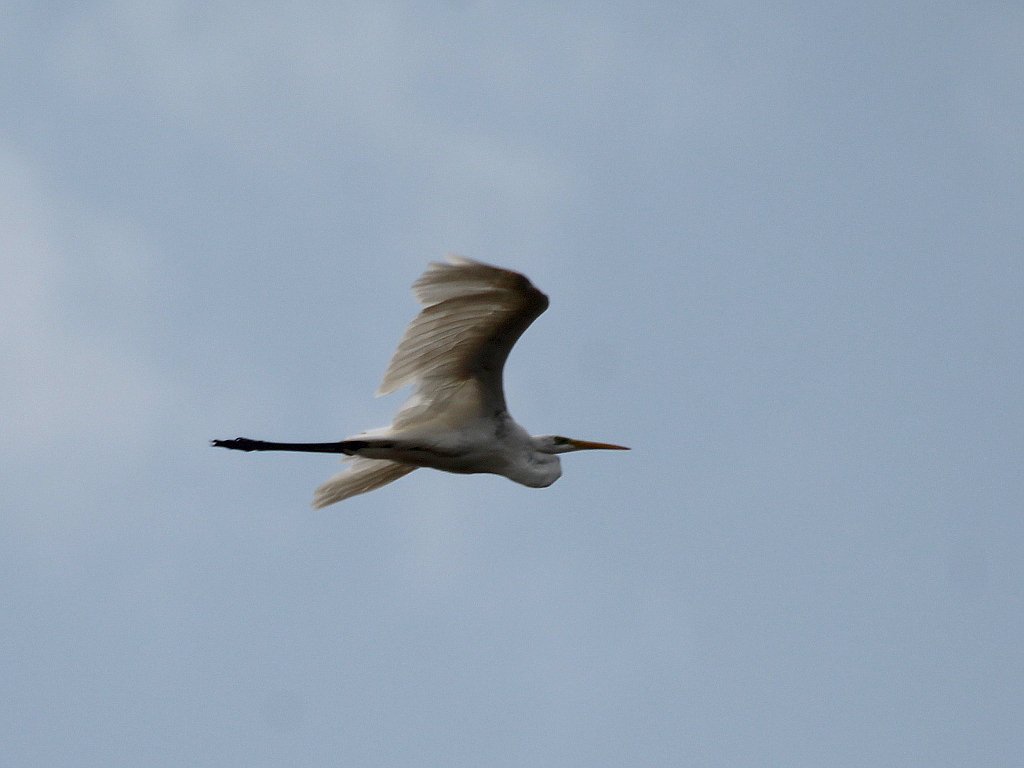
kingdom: Animalia
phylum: Chordata
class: Aves
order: Pelecaniformes
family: Ardeidae
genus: Ardea
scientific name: Ardea alba
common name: Great egret
